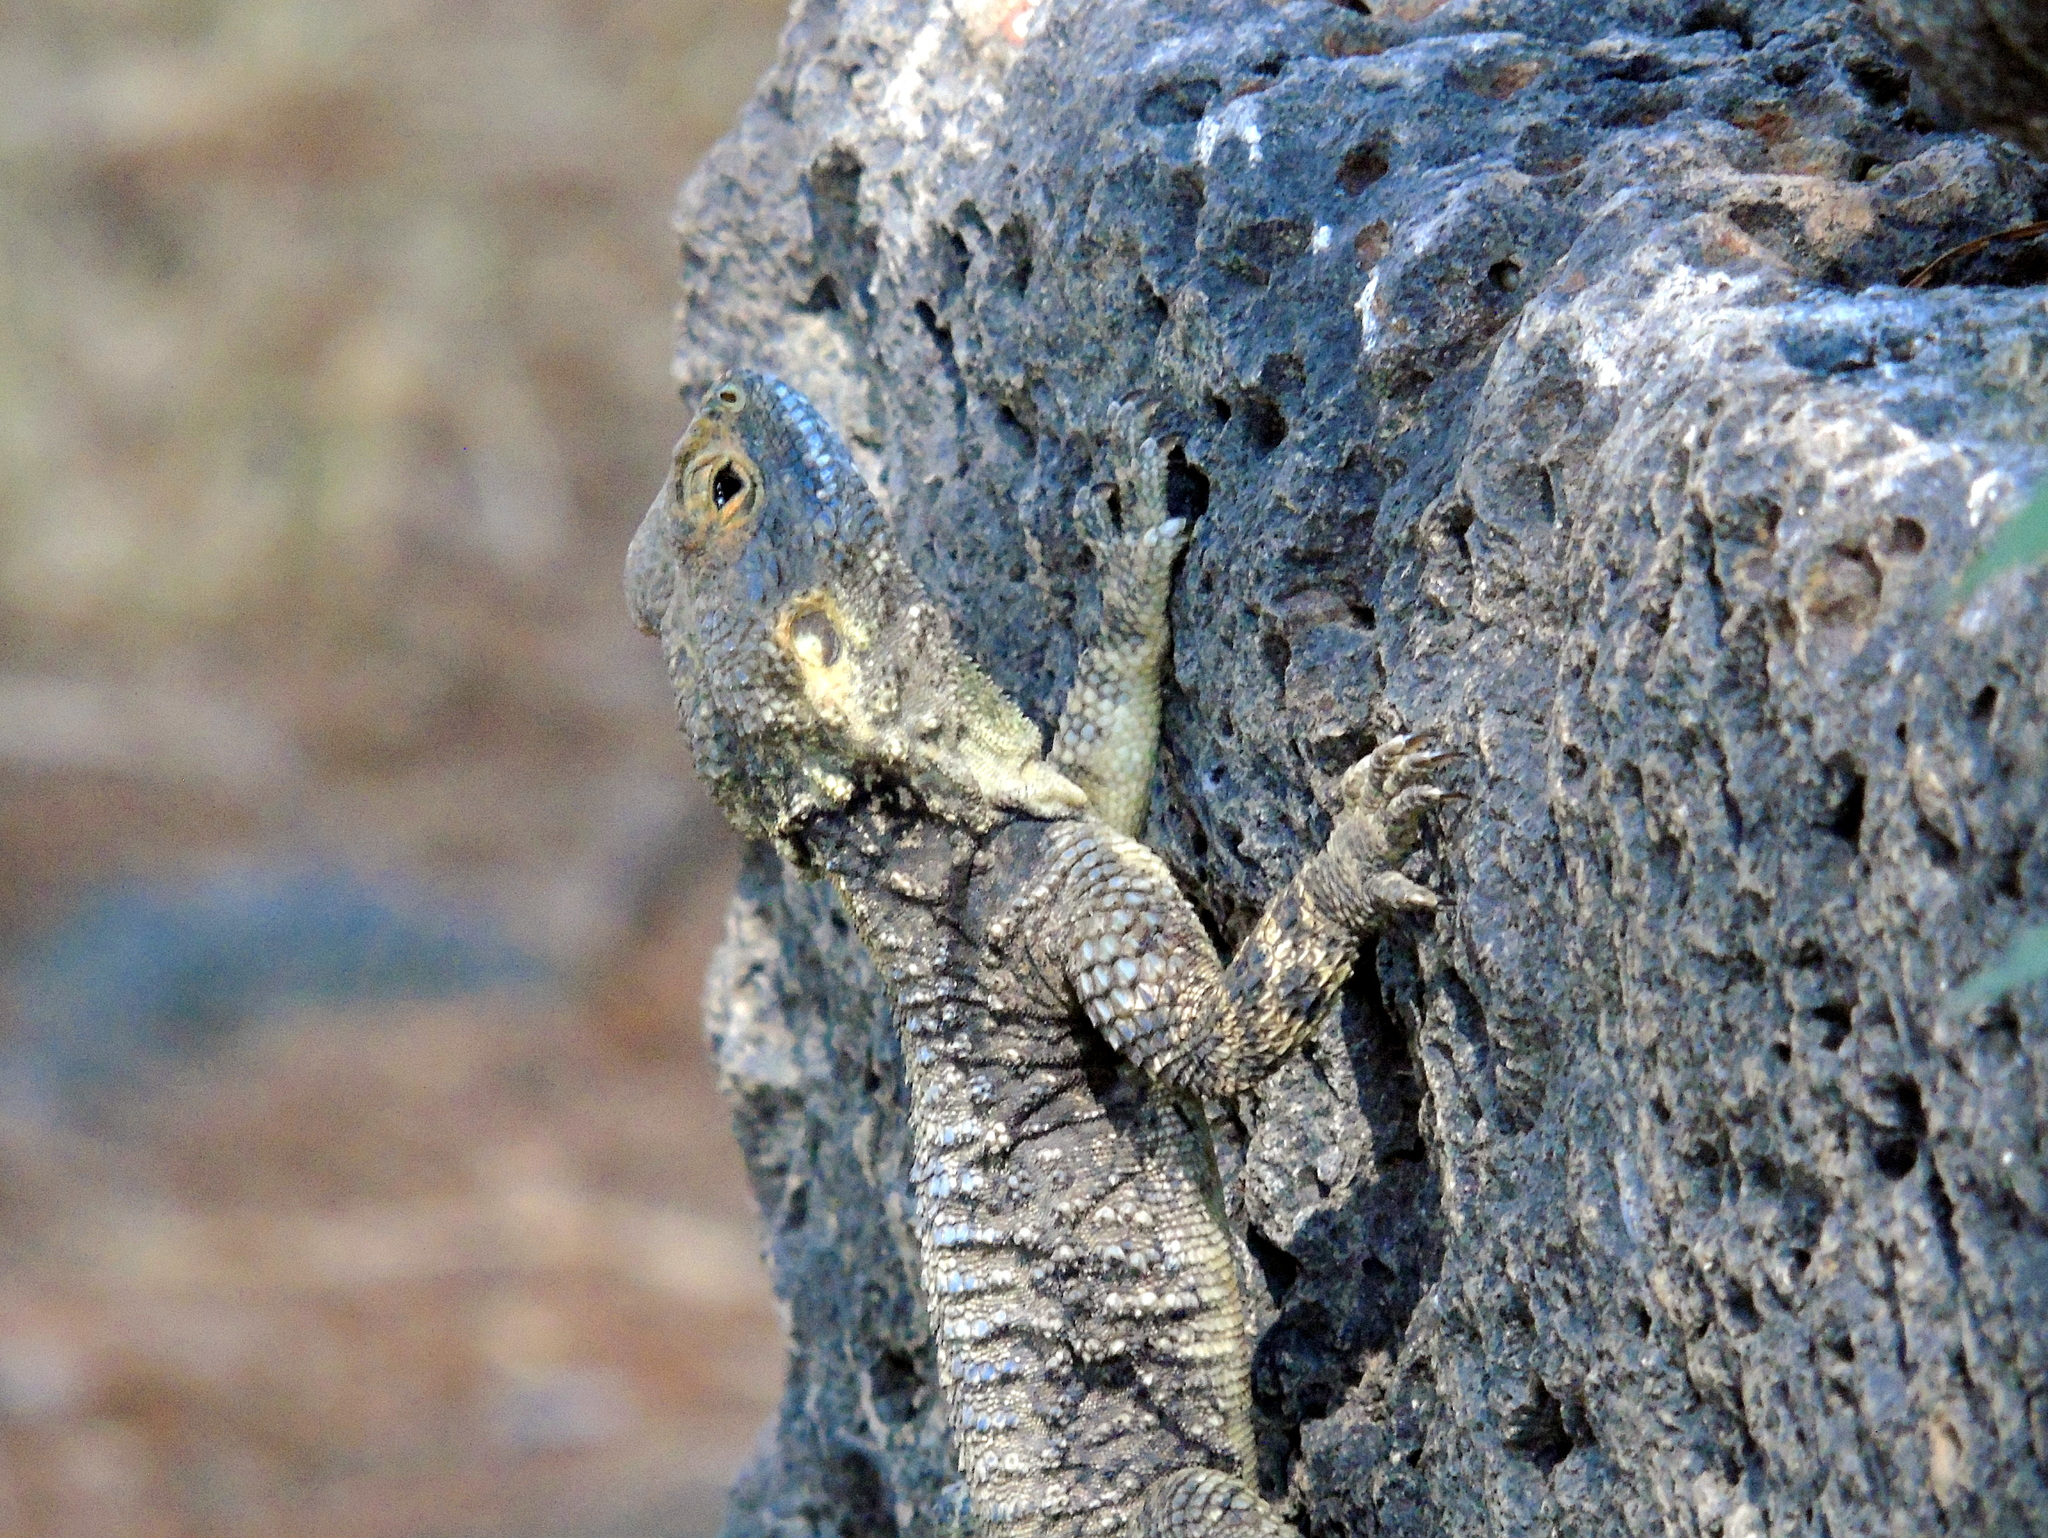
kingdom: Animalia
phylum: Chordata
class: Squamata
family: Agamidae
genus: Stellagama
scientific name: Stellagama stellio
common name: Starred agama
